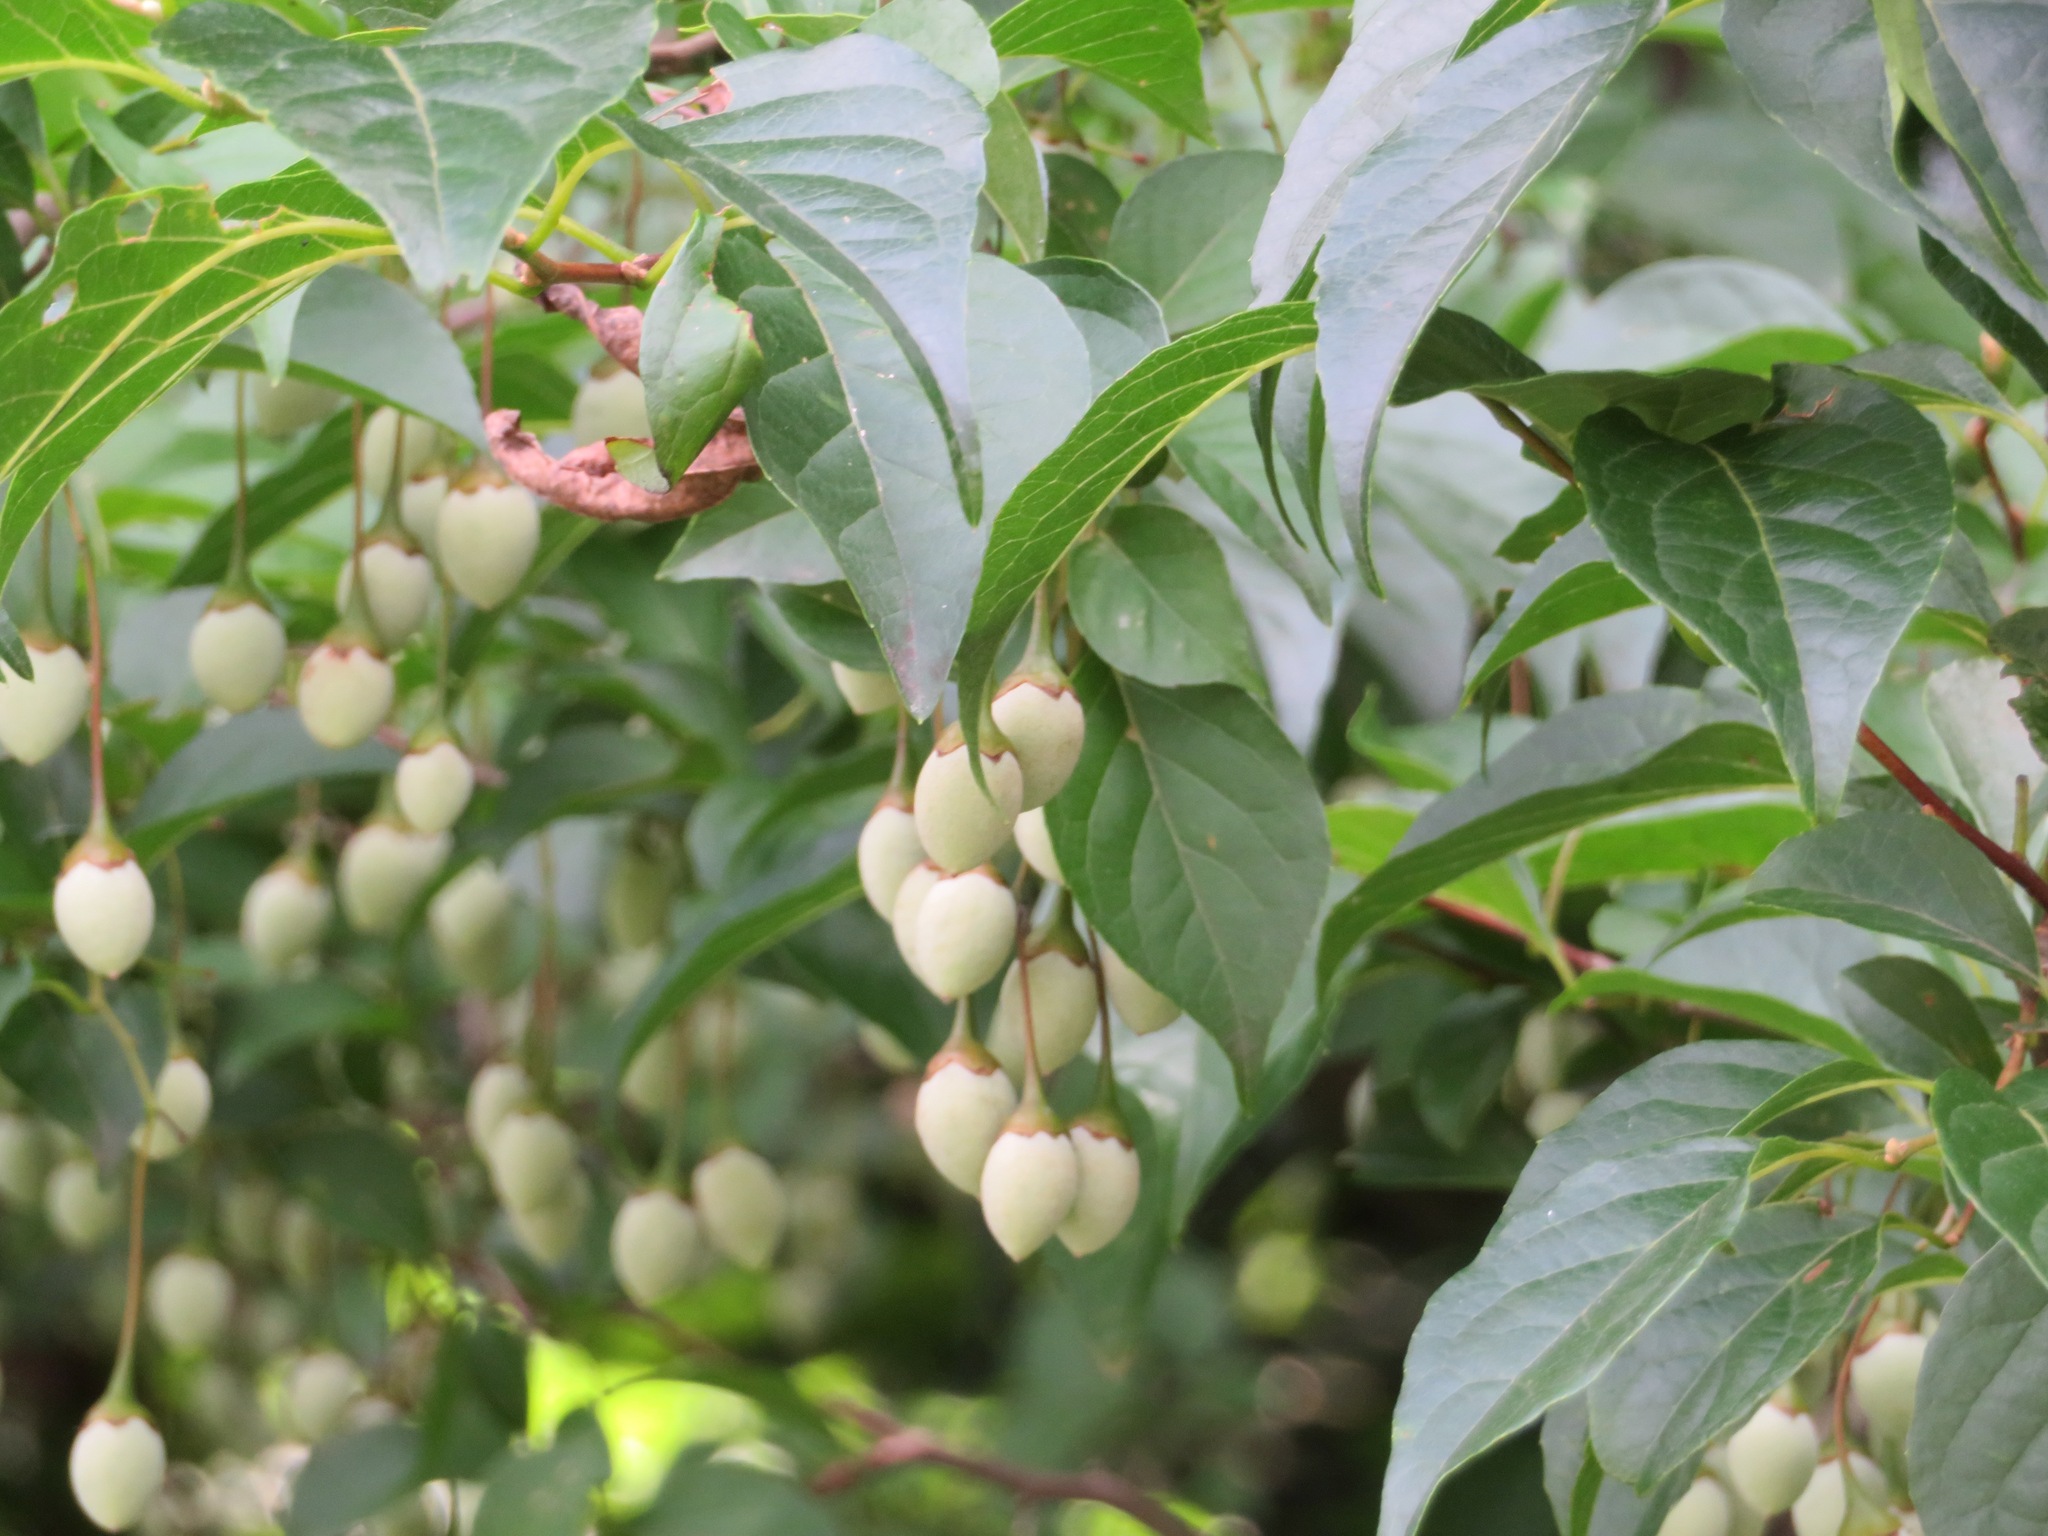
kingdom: Plantae
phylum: Tracheophyta
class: Magnoliopsida
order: Ericales
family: Styracaceae
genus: Styrax
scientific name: Styrax japonicus
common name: Japanese snowbell
